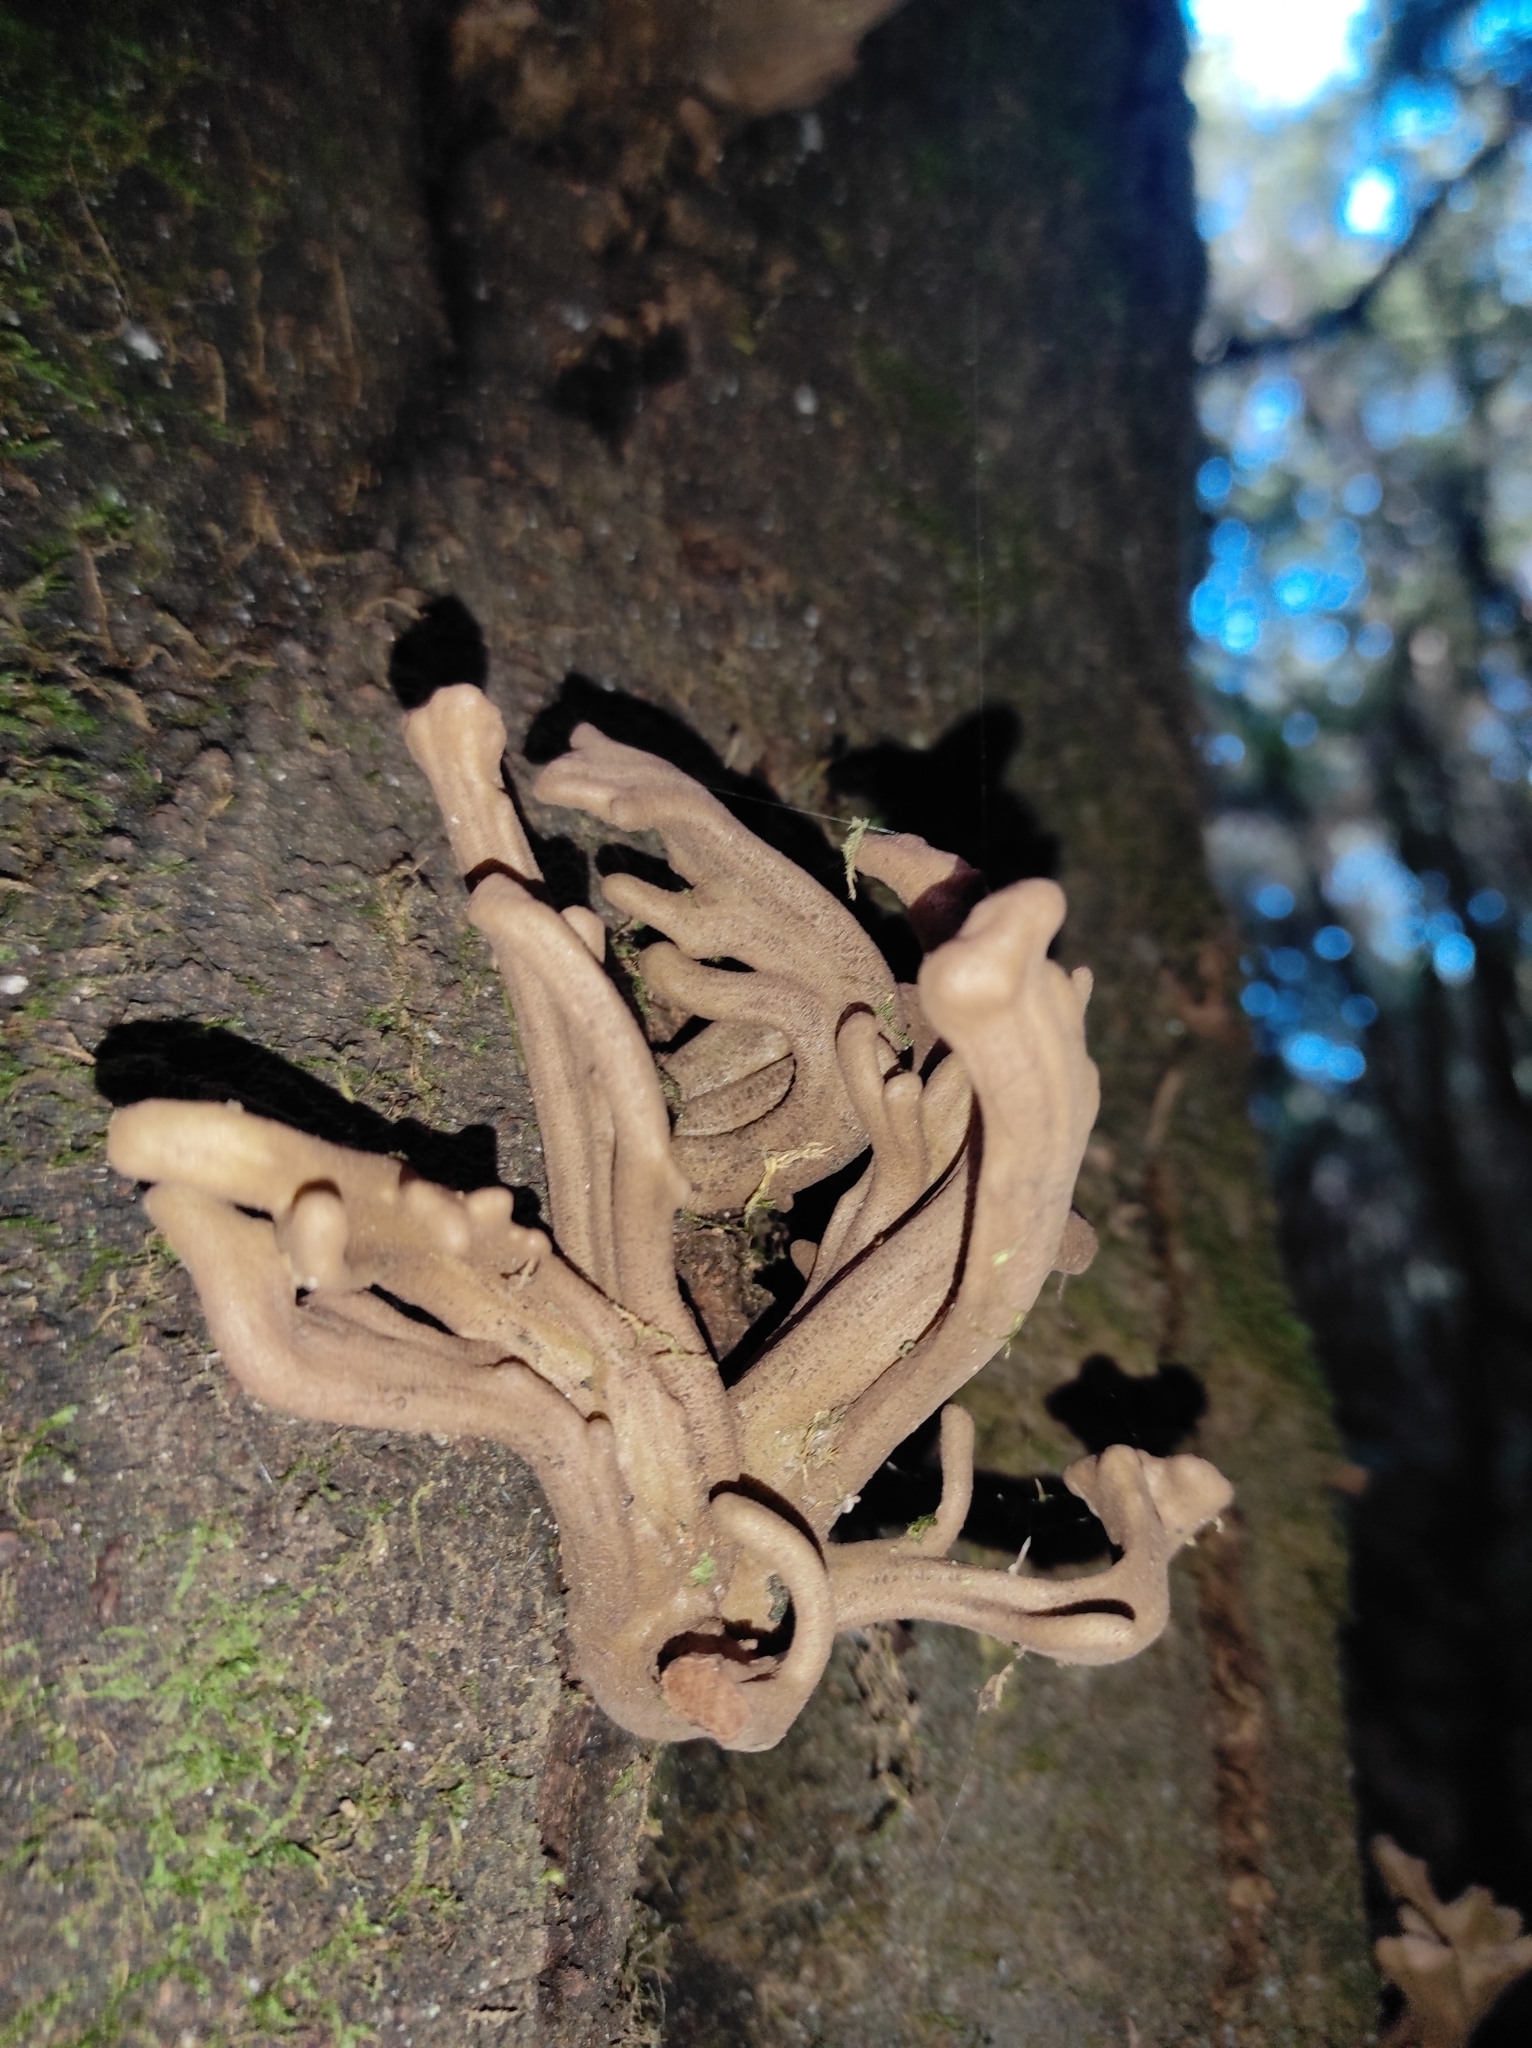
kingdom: Fungi
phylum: Basidiomycota
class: Exobasidiomycetes
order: Exobasidiales
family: Laurobasidiaceae
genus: Laurobasidium
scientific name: Laurobasidium lauri
